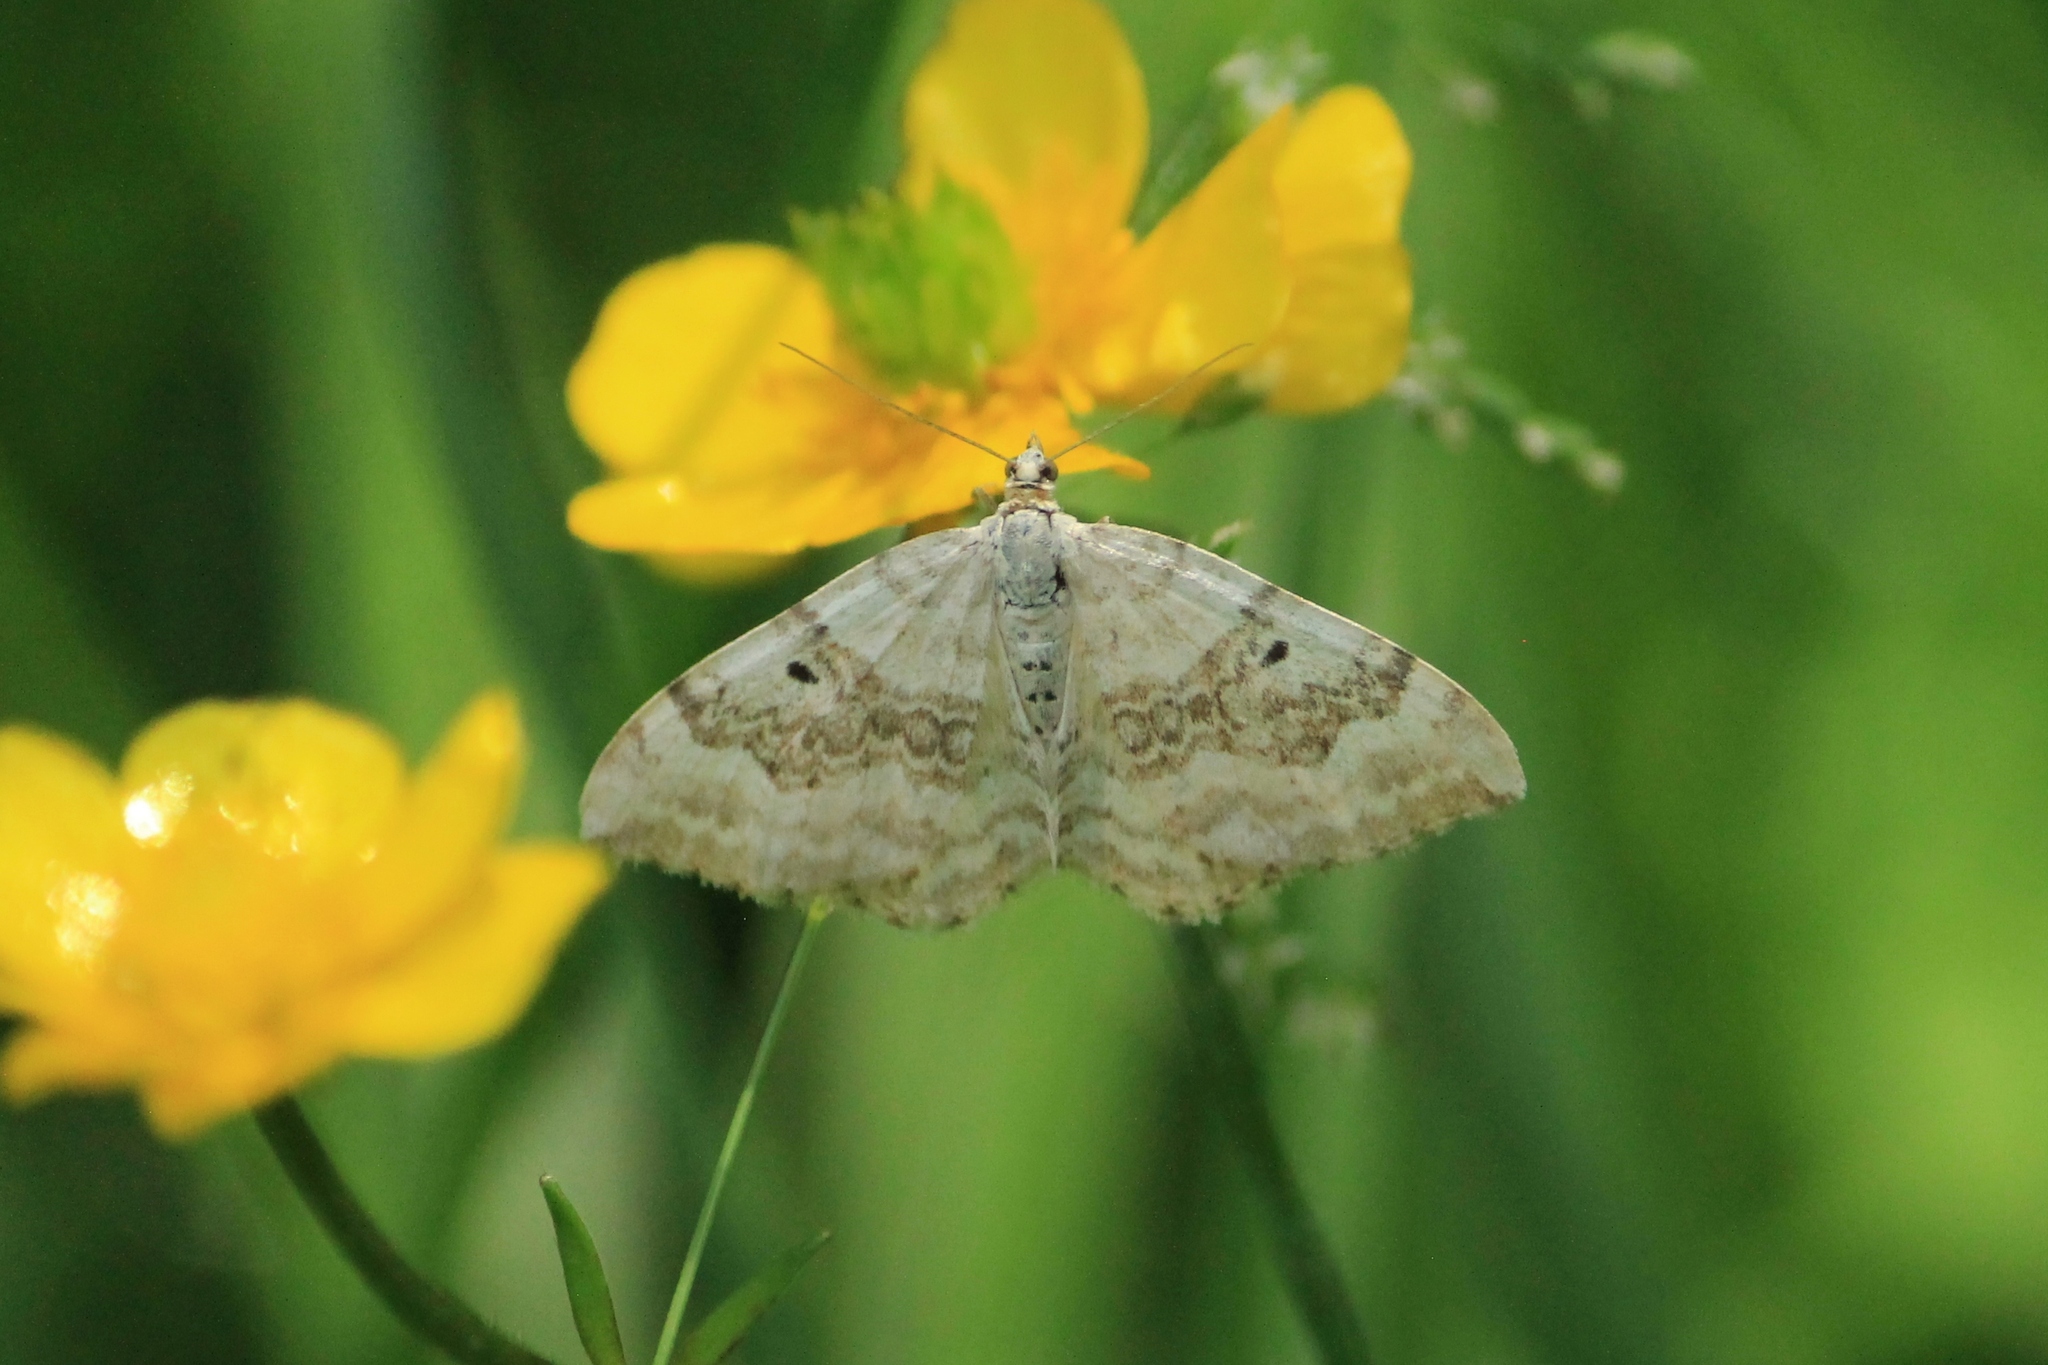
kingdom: Animalia
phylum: Arthropoda
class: Insecta
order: Lepidoptera
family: Geometridae
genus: Xanthorhoe
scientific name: Xanthorhoe montanata
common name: Silver-ground carpet
